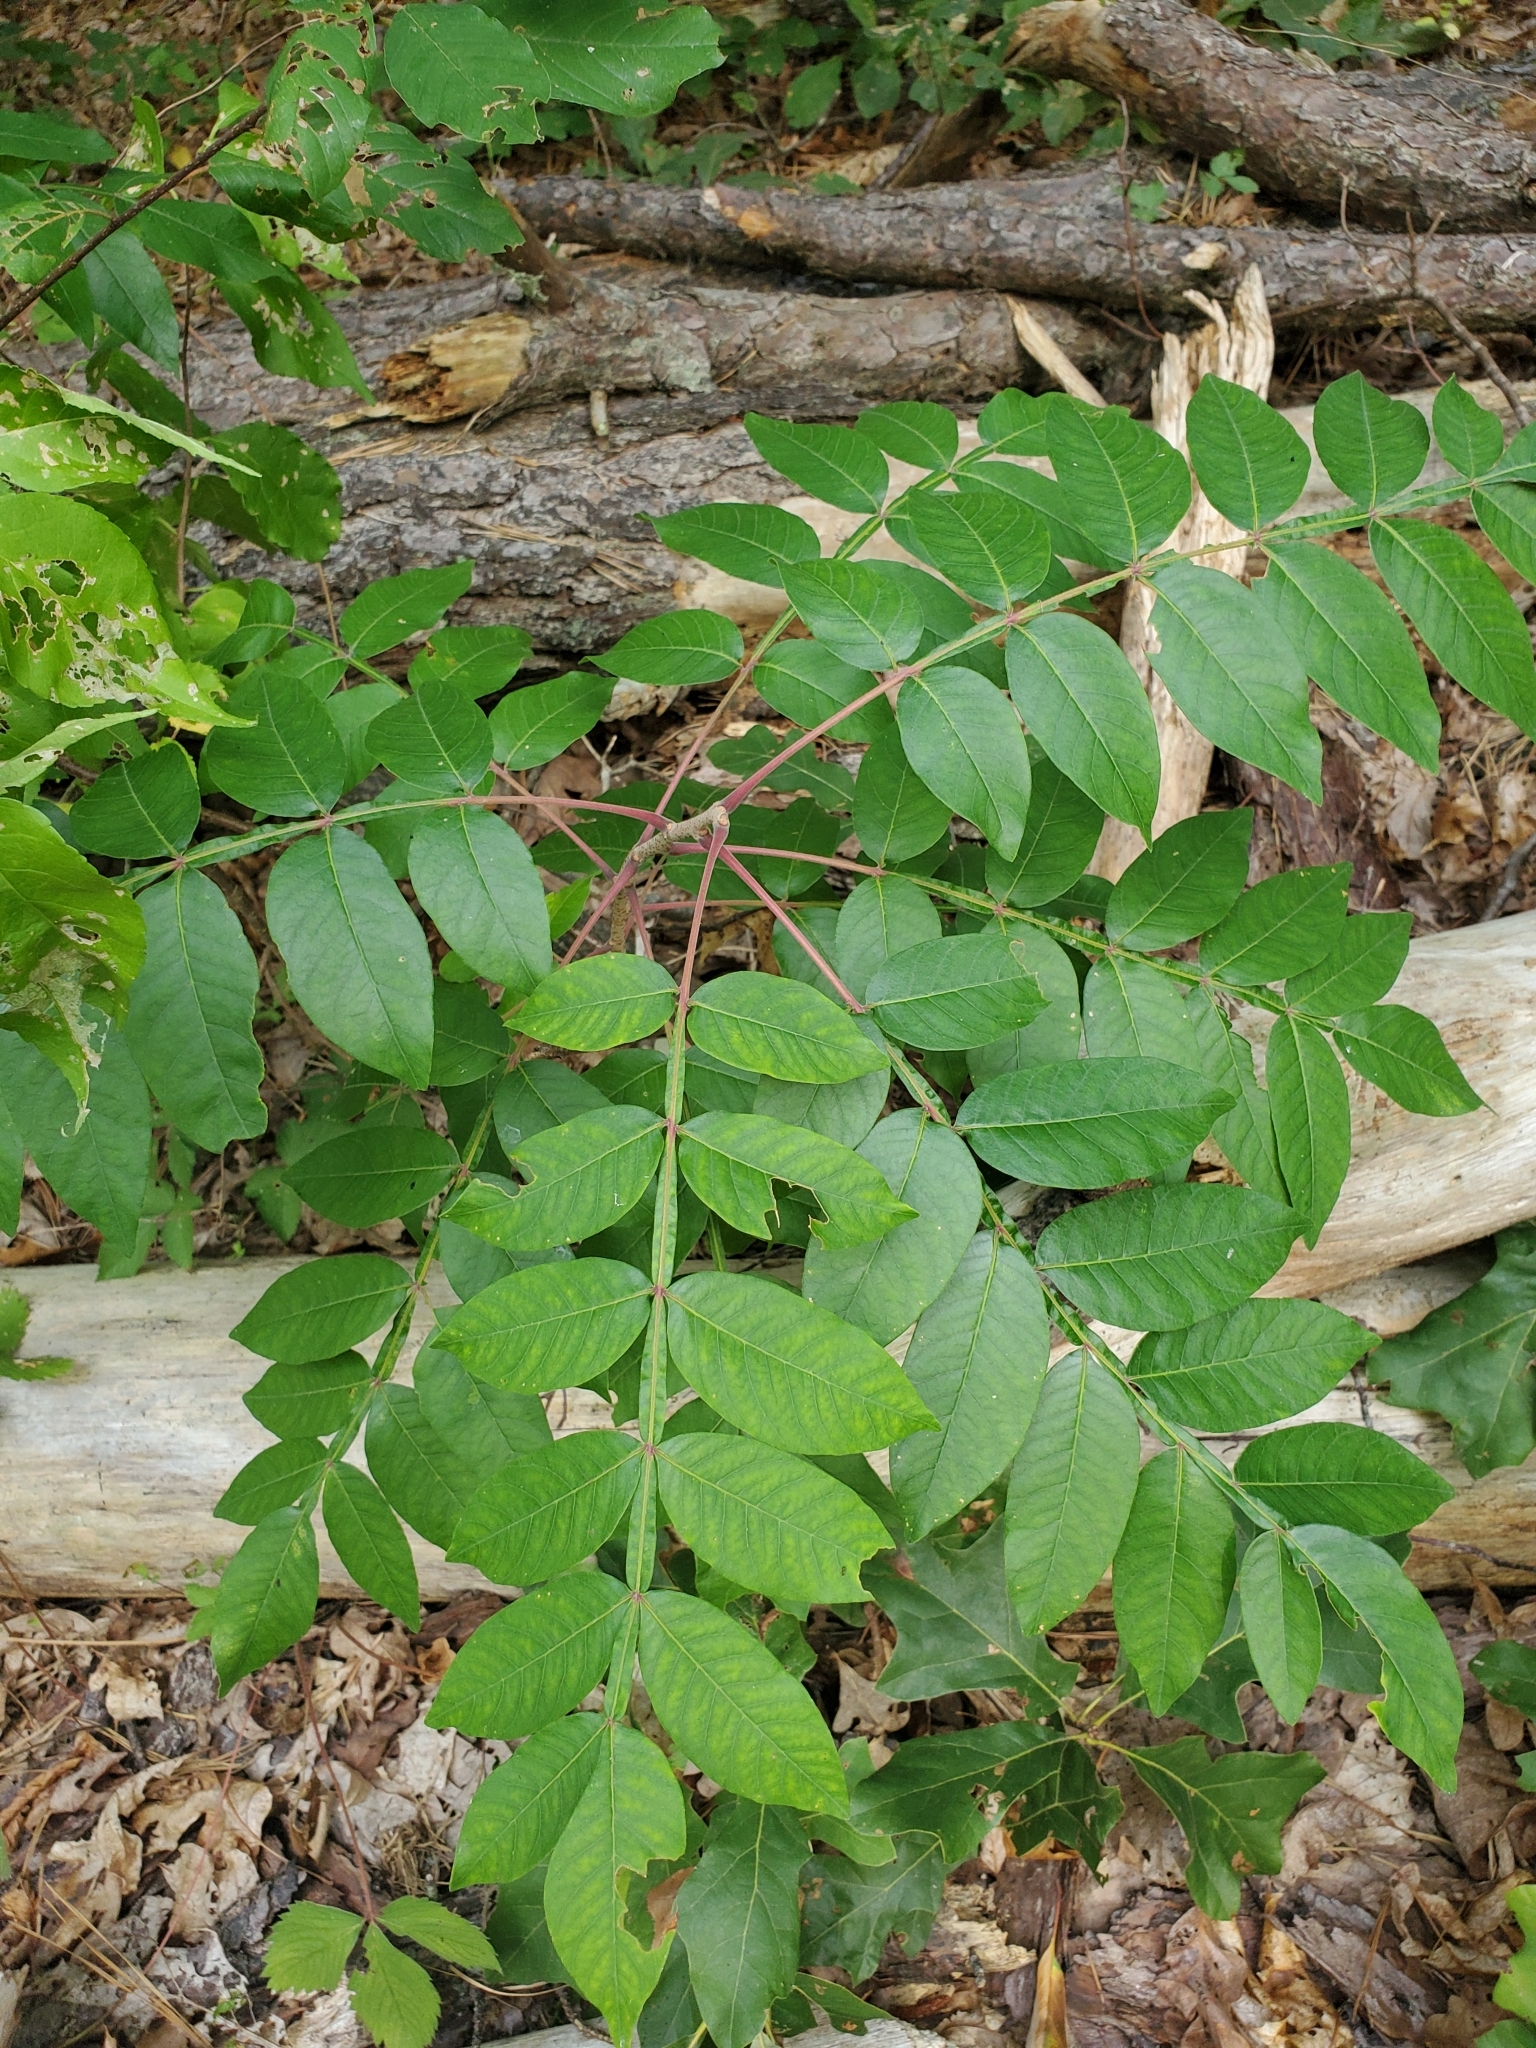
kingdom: Plantae
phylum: Tracheophyta
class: Magnoliopsida
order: Sapindales
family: Anacardiaceae
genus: Rhus
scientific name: Rhus copallina
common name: Shining sumac
